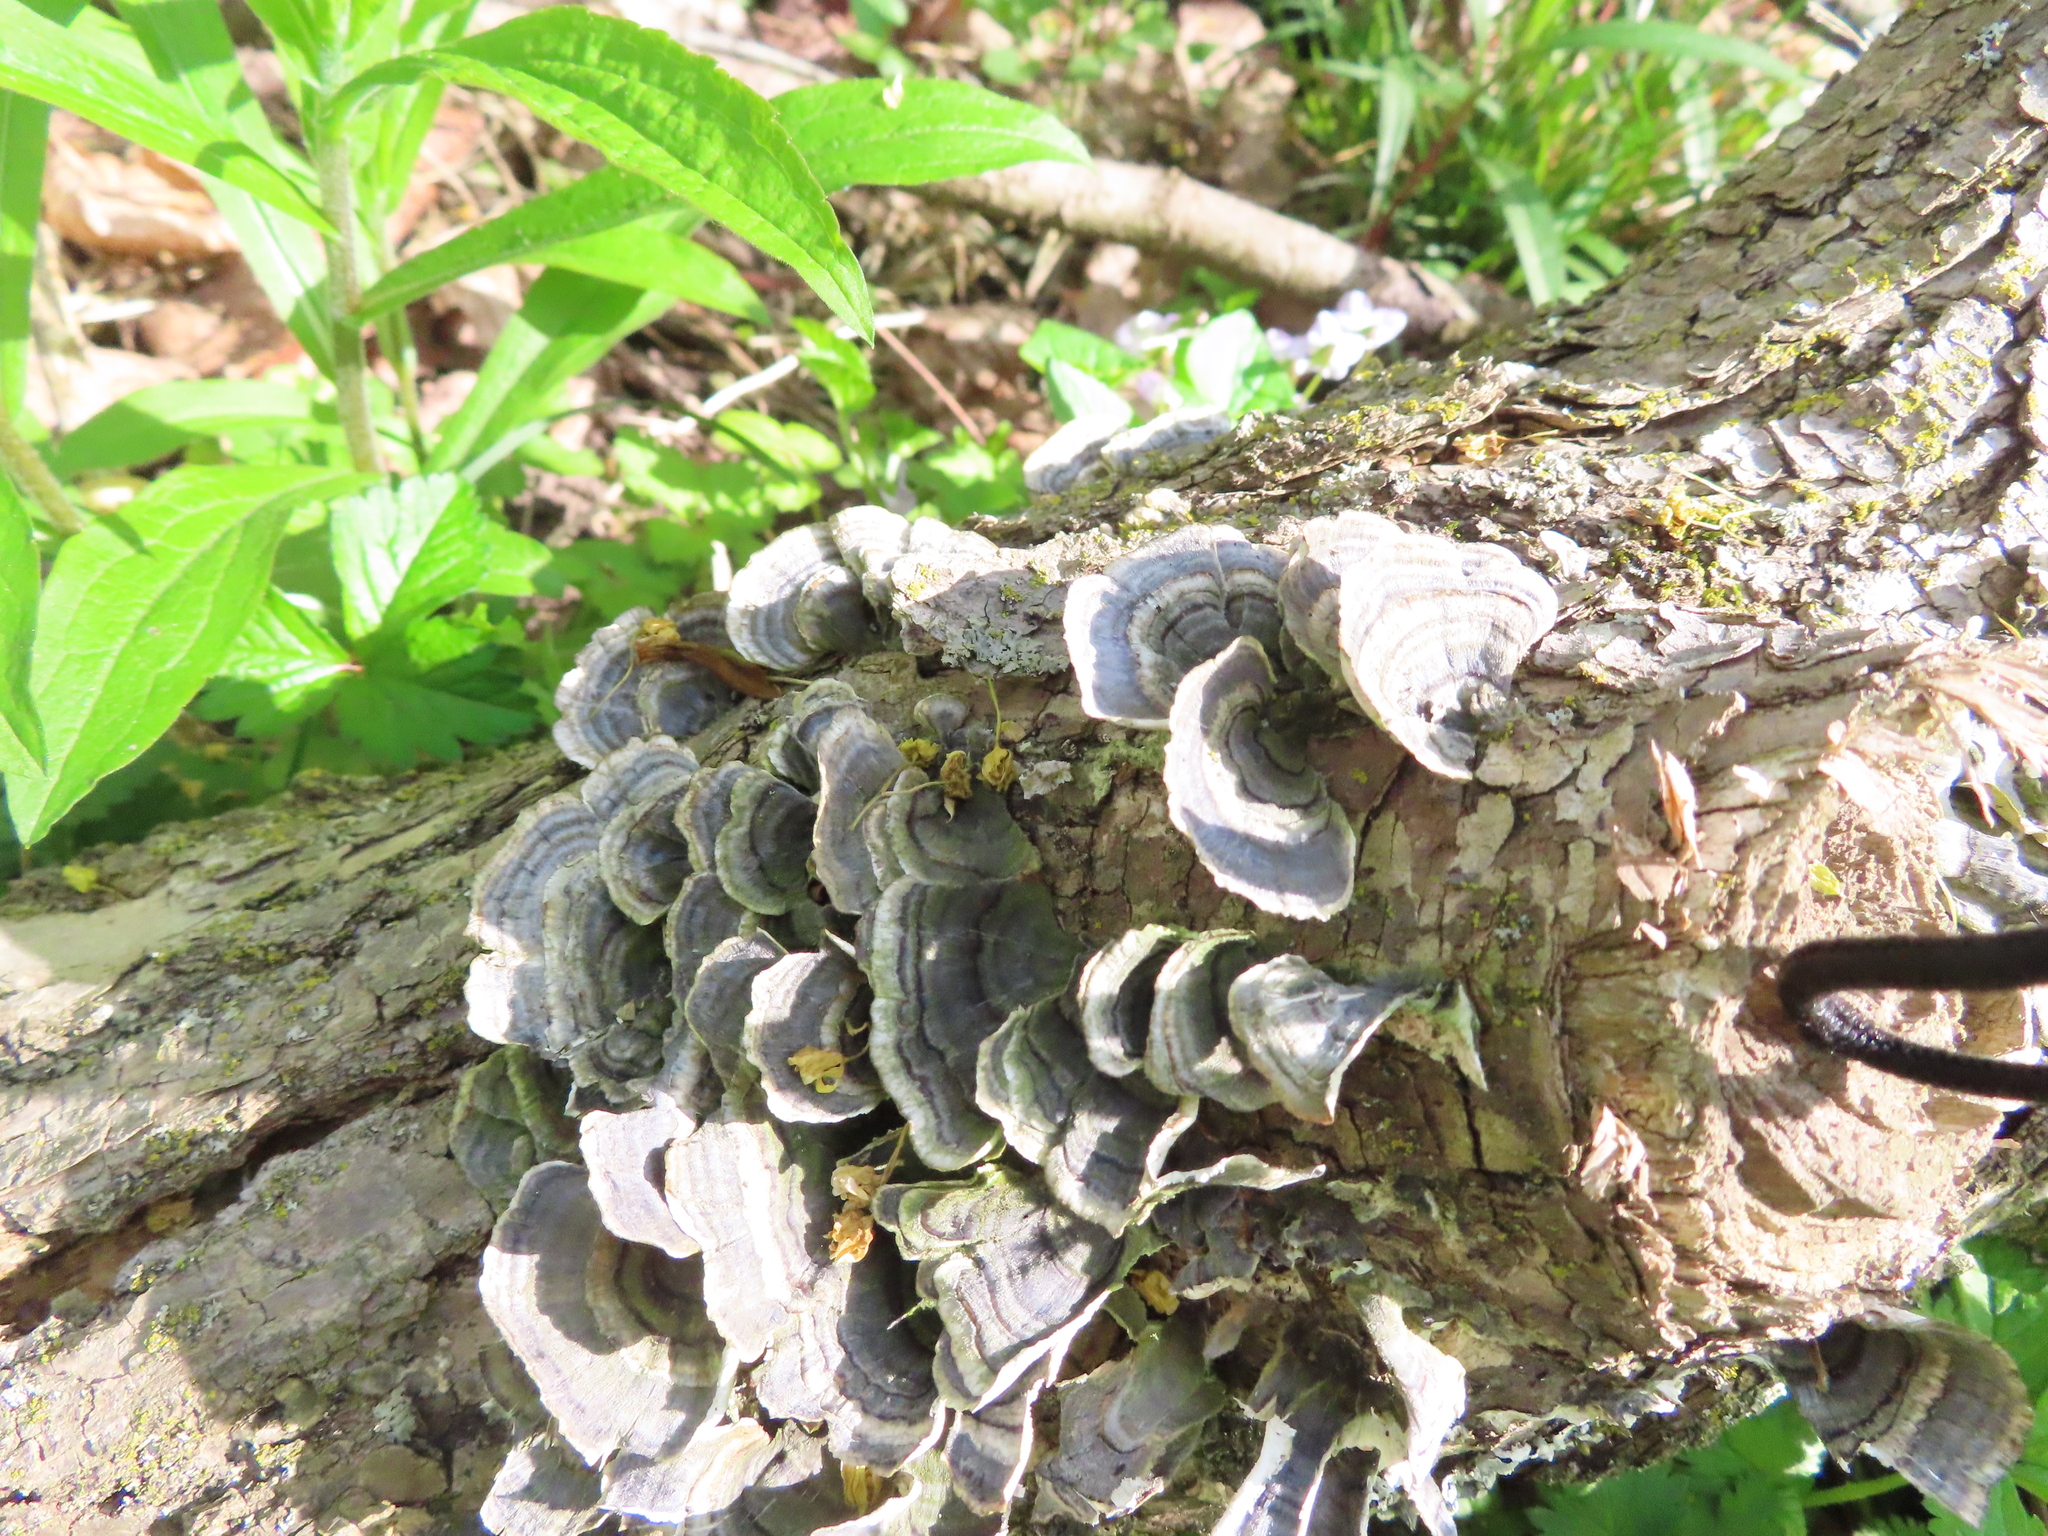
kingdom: Fungi
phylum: Basidiomycota
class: Agaricomycetes
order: Polyporales
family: Polyporaceae
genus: Trametes
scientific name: Trametes versicolor
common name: Turkeytail
